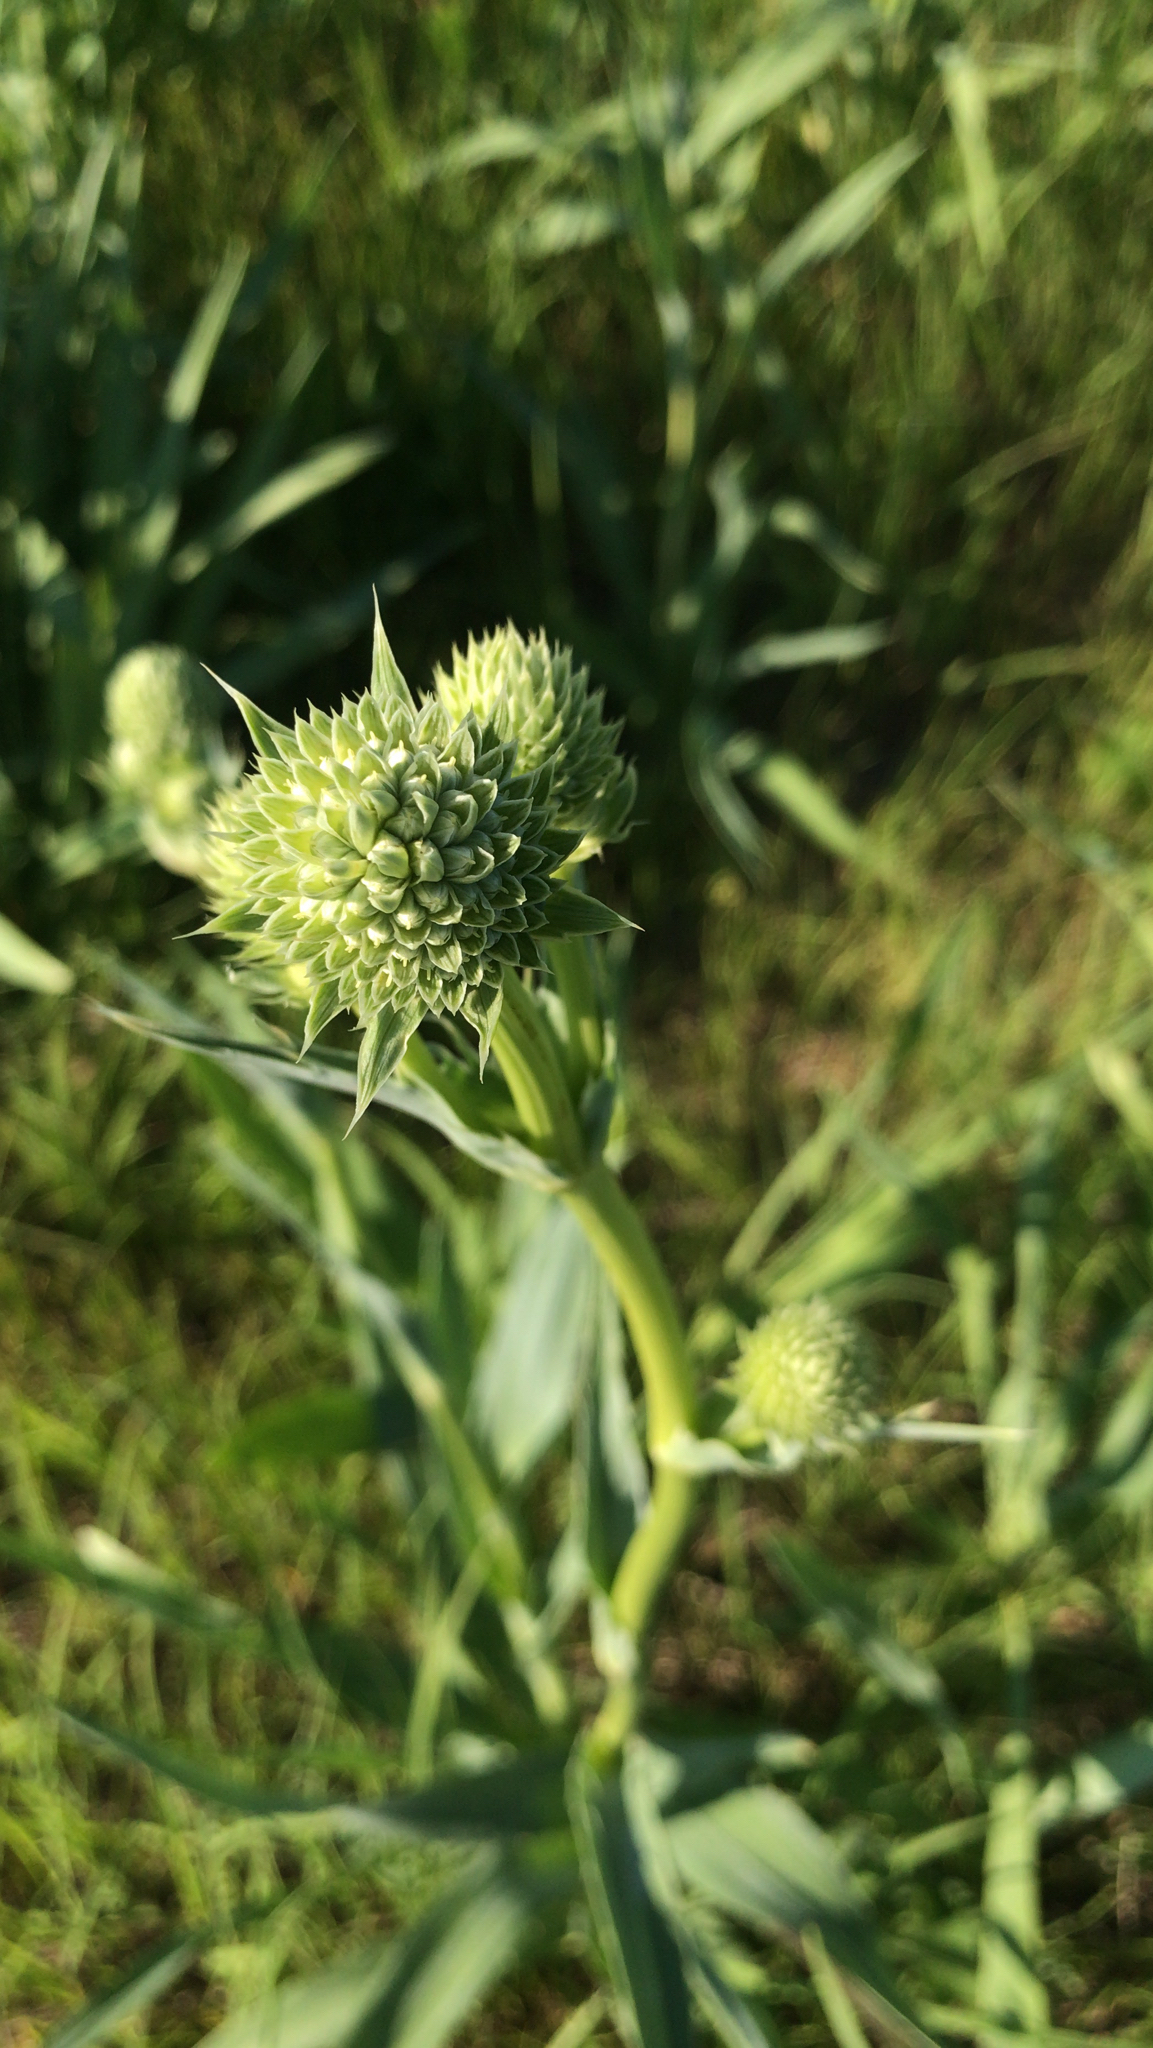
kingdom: Plantae
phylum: Tracheophyta
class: Magnoliopsida
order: Apiales
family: Apiaceae
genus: Eryngium
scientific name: Eryngium yuccifolium
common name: Button eryngo
